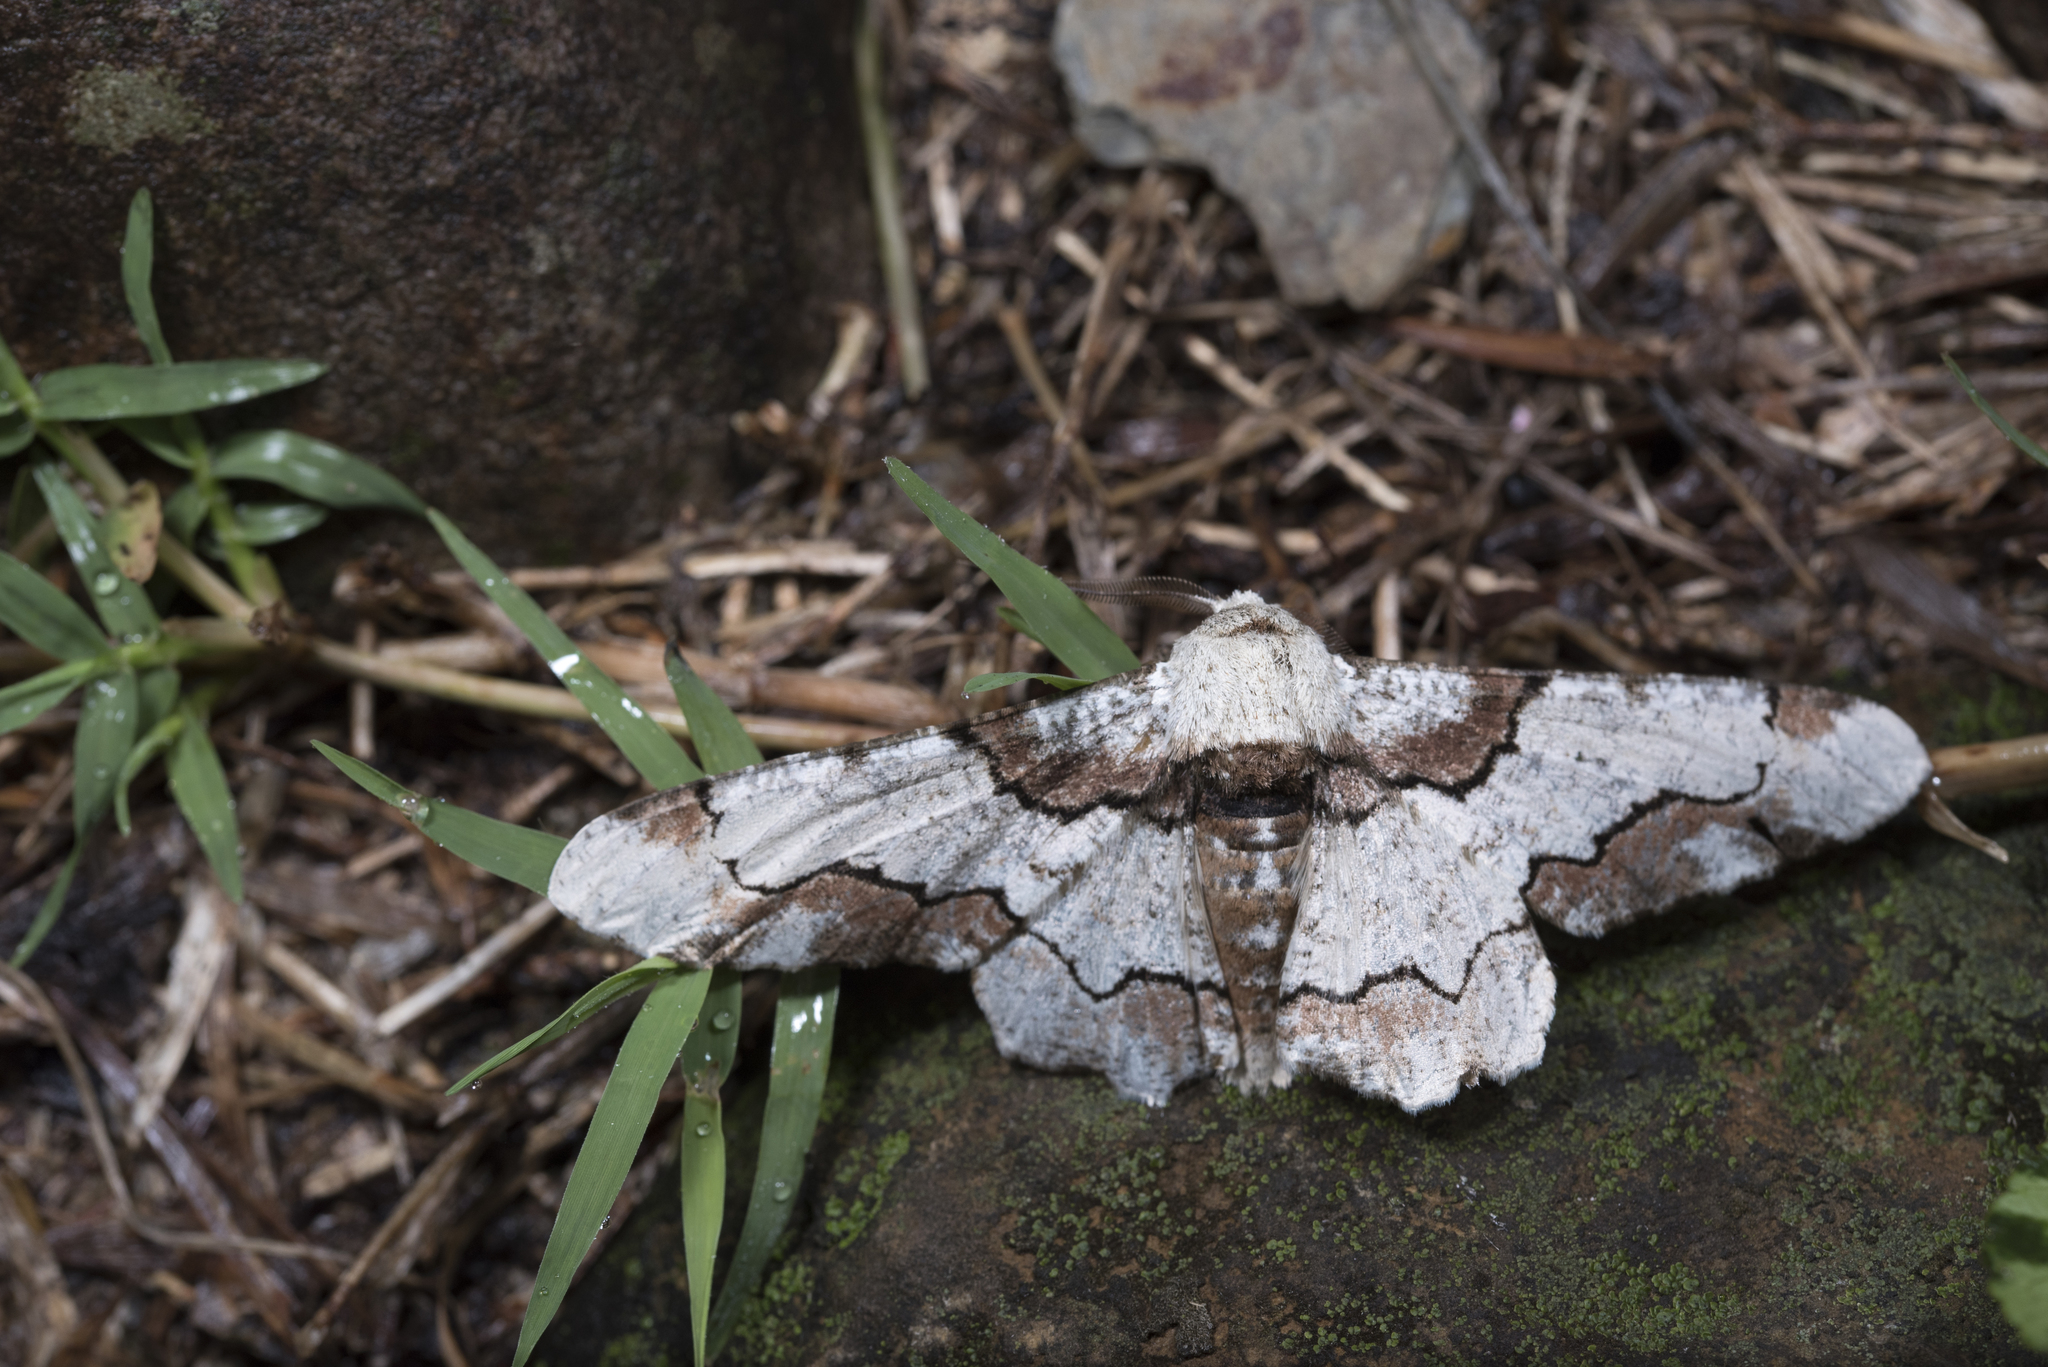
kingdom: Animalia
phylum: Arthropoda
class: Insecta
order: Lepidoptera
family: Geometridae
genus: Biston
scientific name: Biston regalis
